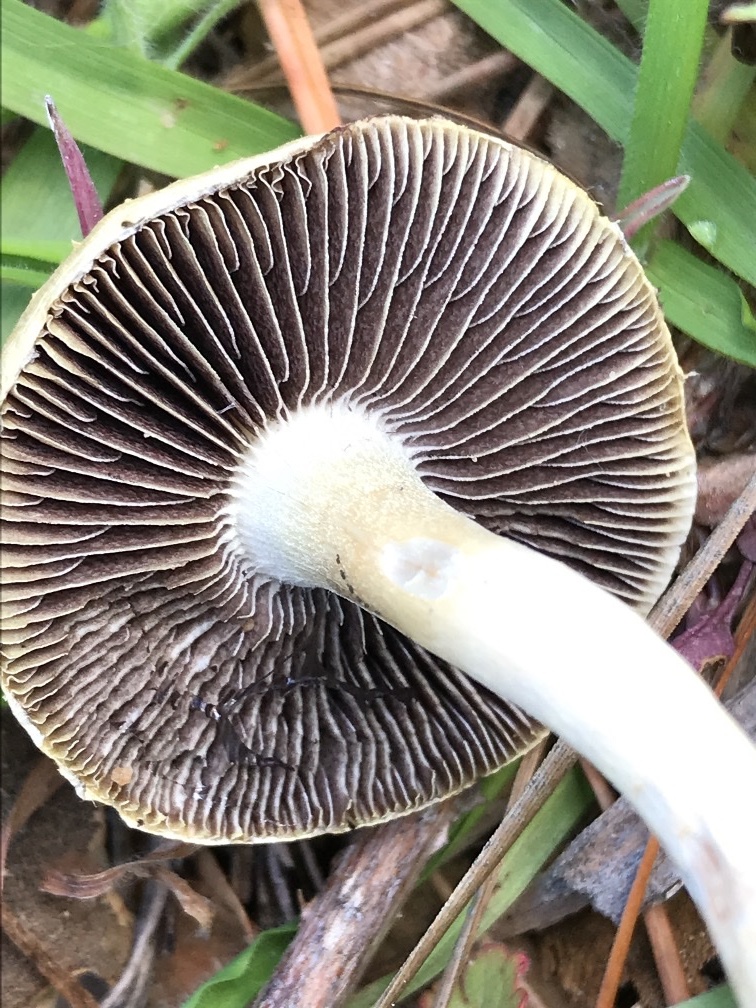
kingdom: Fungi
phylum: Basidiomycota
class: Agaricomycetes
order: Agaricales
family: Strophariaceae
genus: Leratiomyces
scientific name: Leratiomyces percevalii
